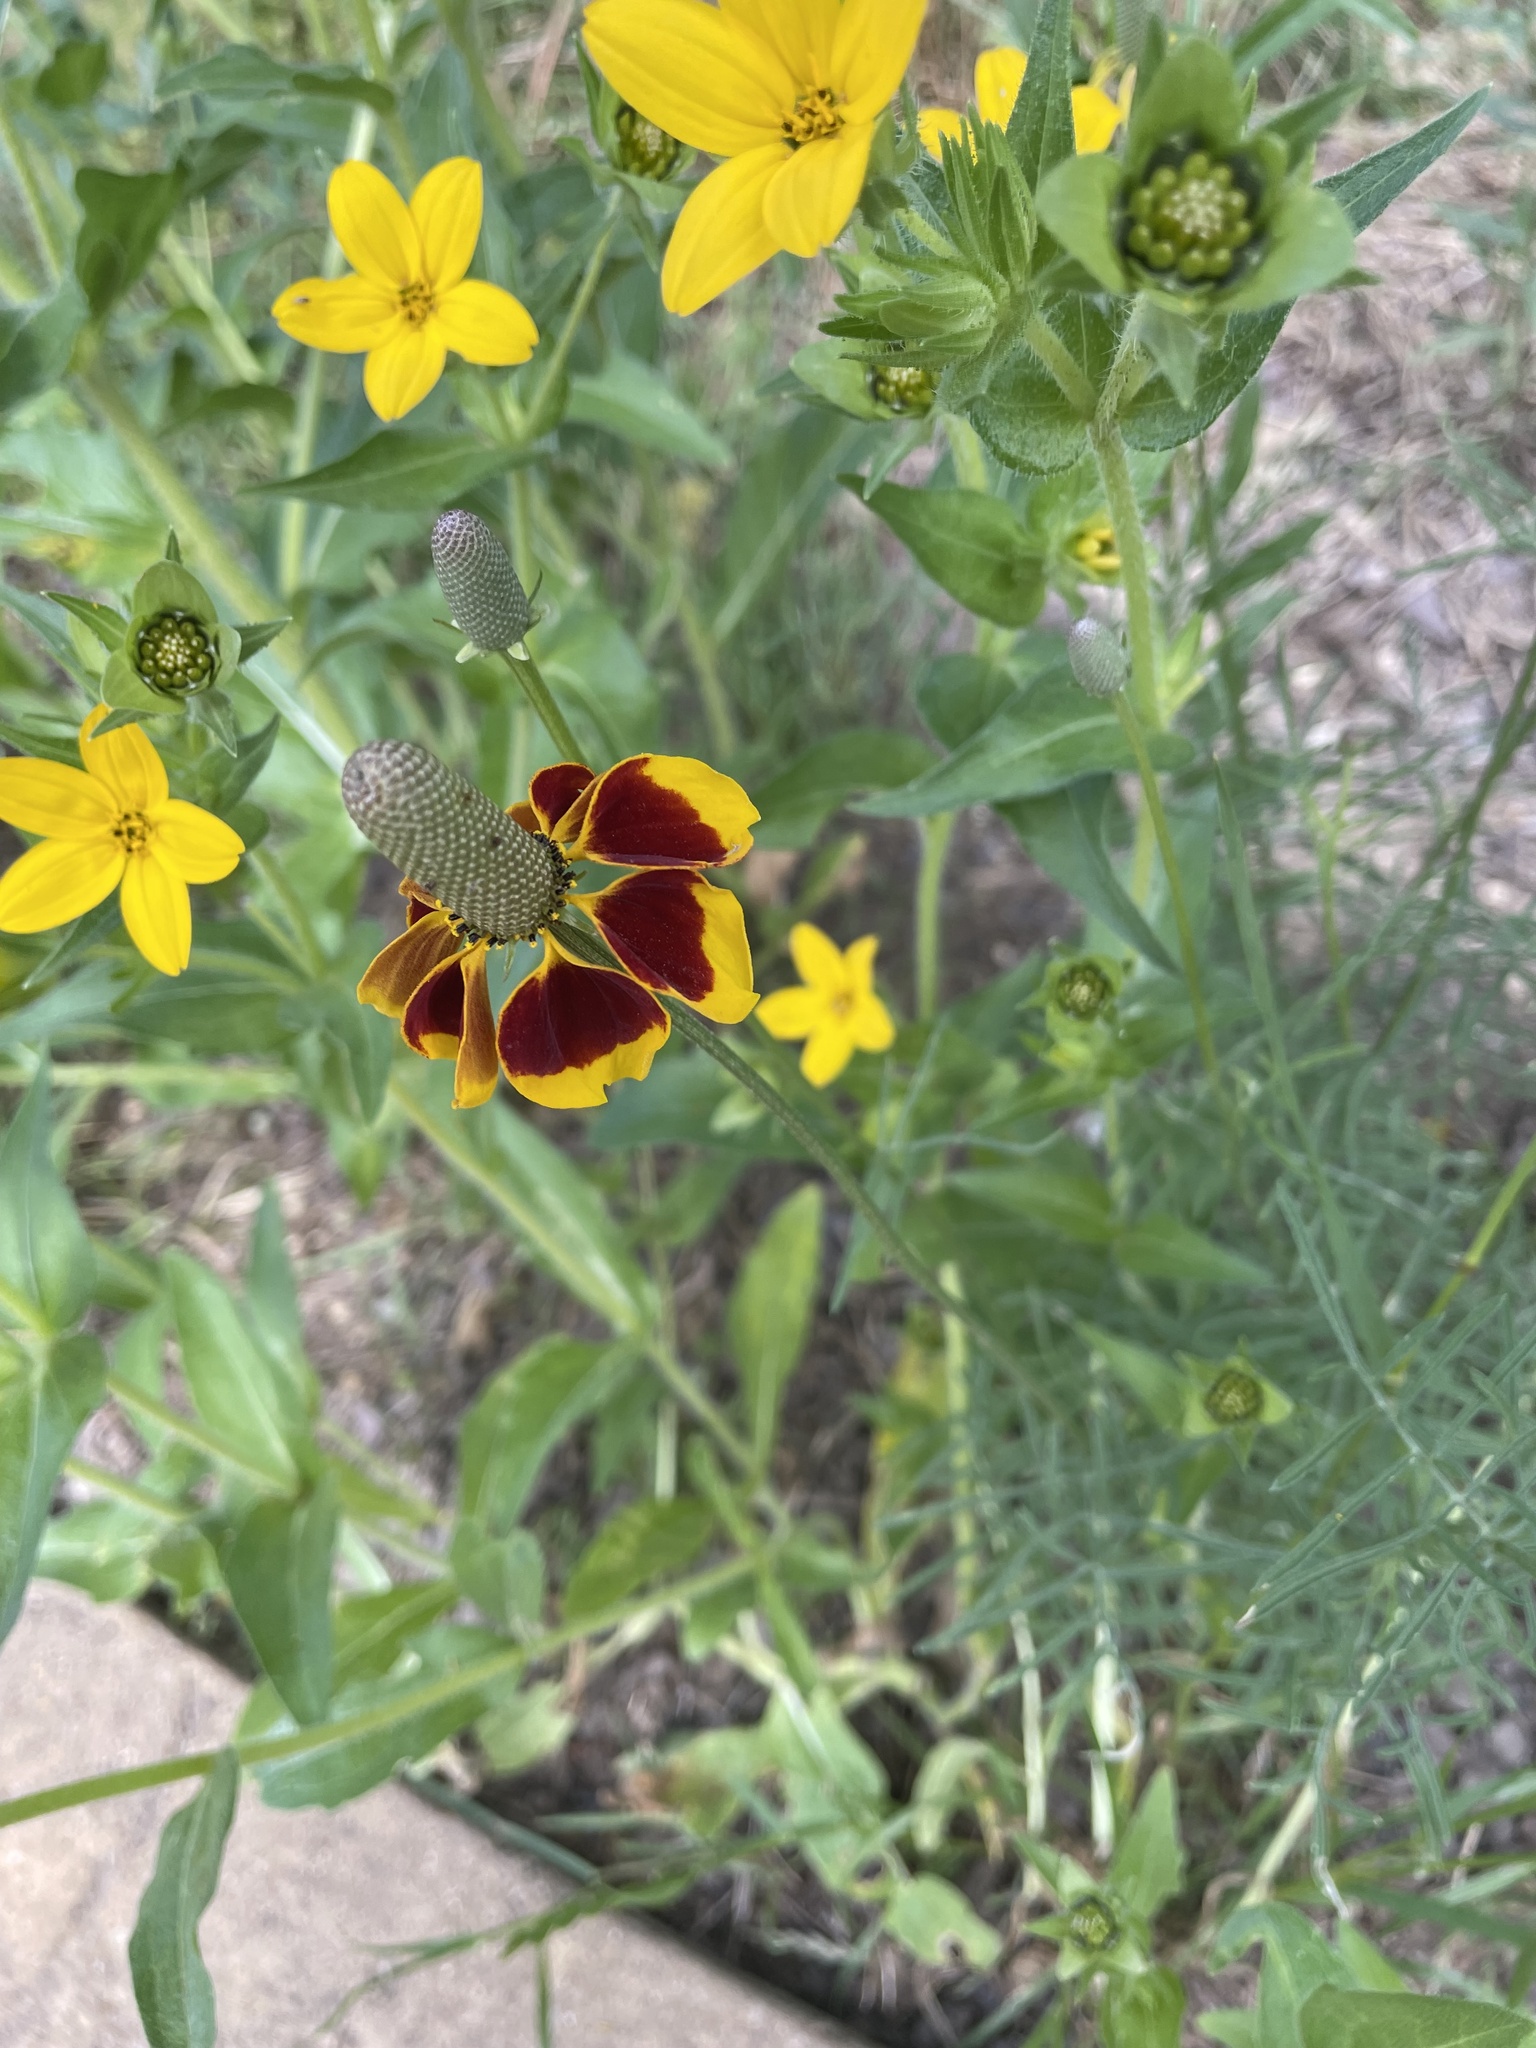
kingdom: Plantae
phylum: Tracheophyta
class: Magnoliopsida
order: Asterales
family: Asteraceae
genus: Ratibida
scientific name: Ratibida columnifera
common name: Prairie coneflower
